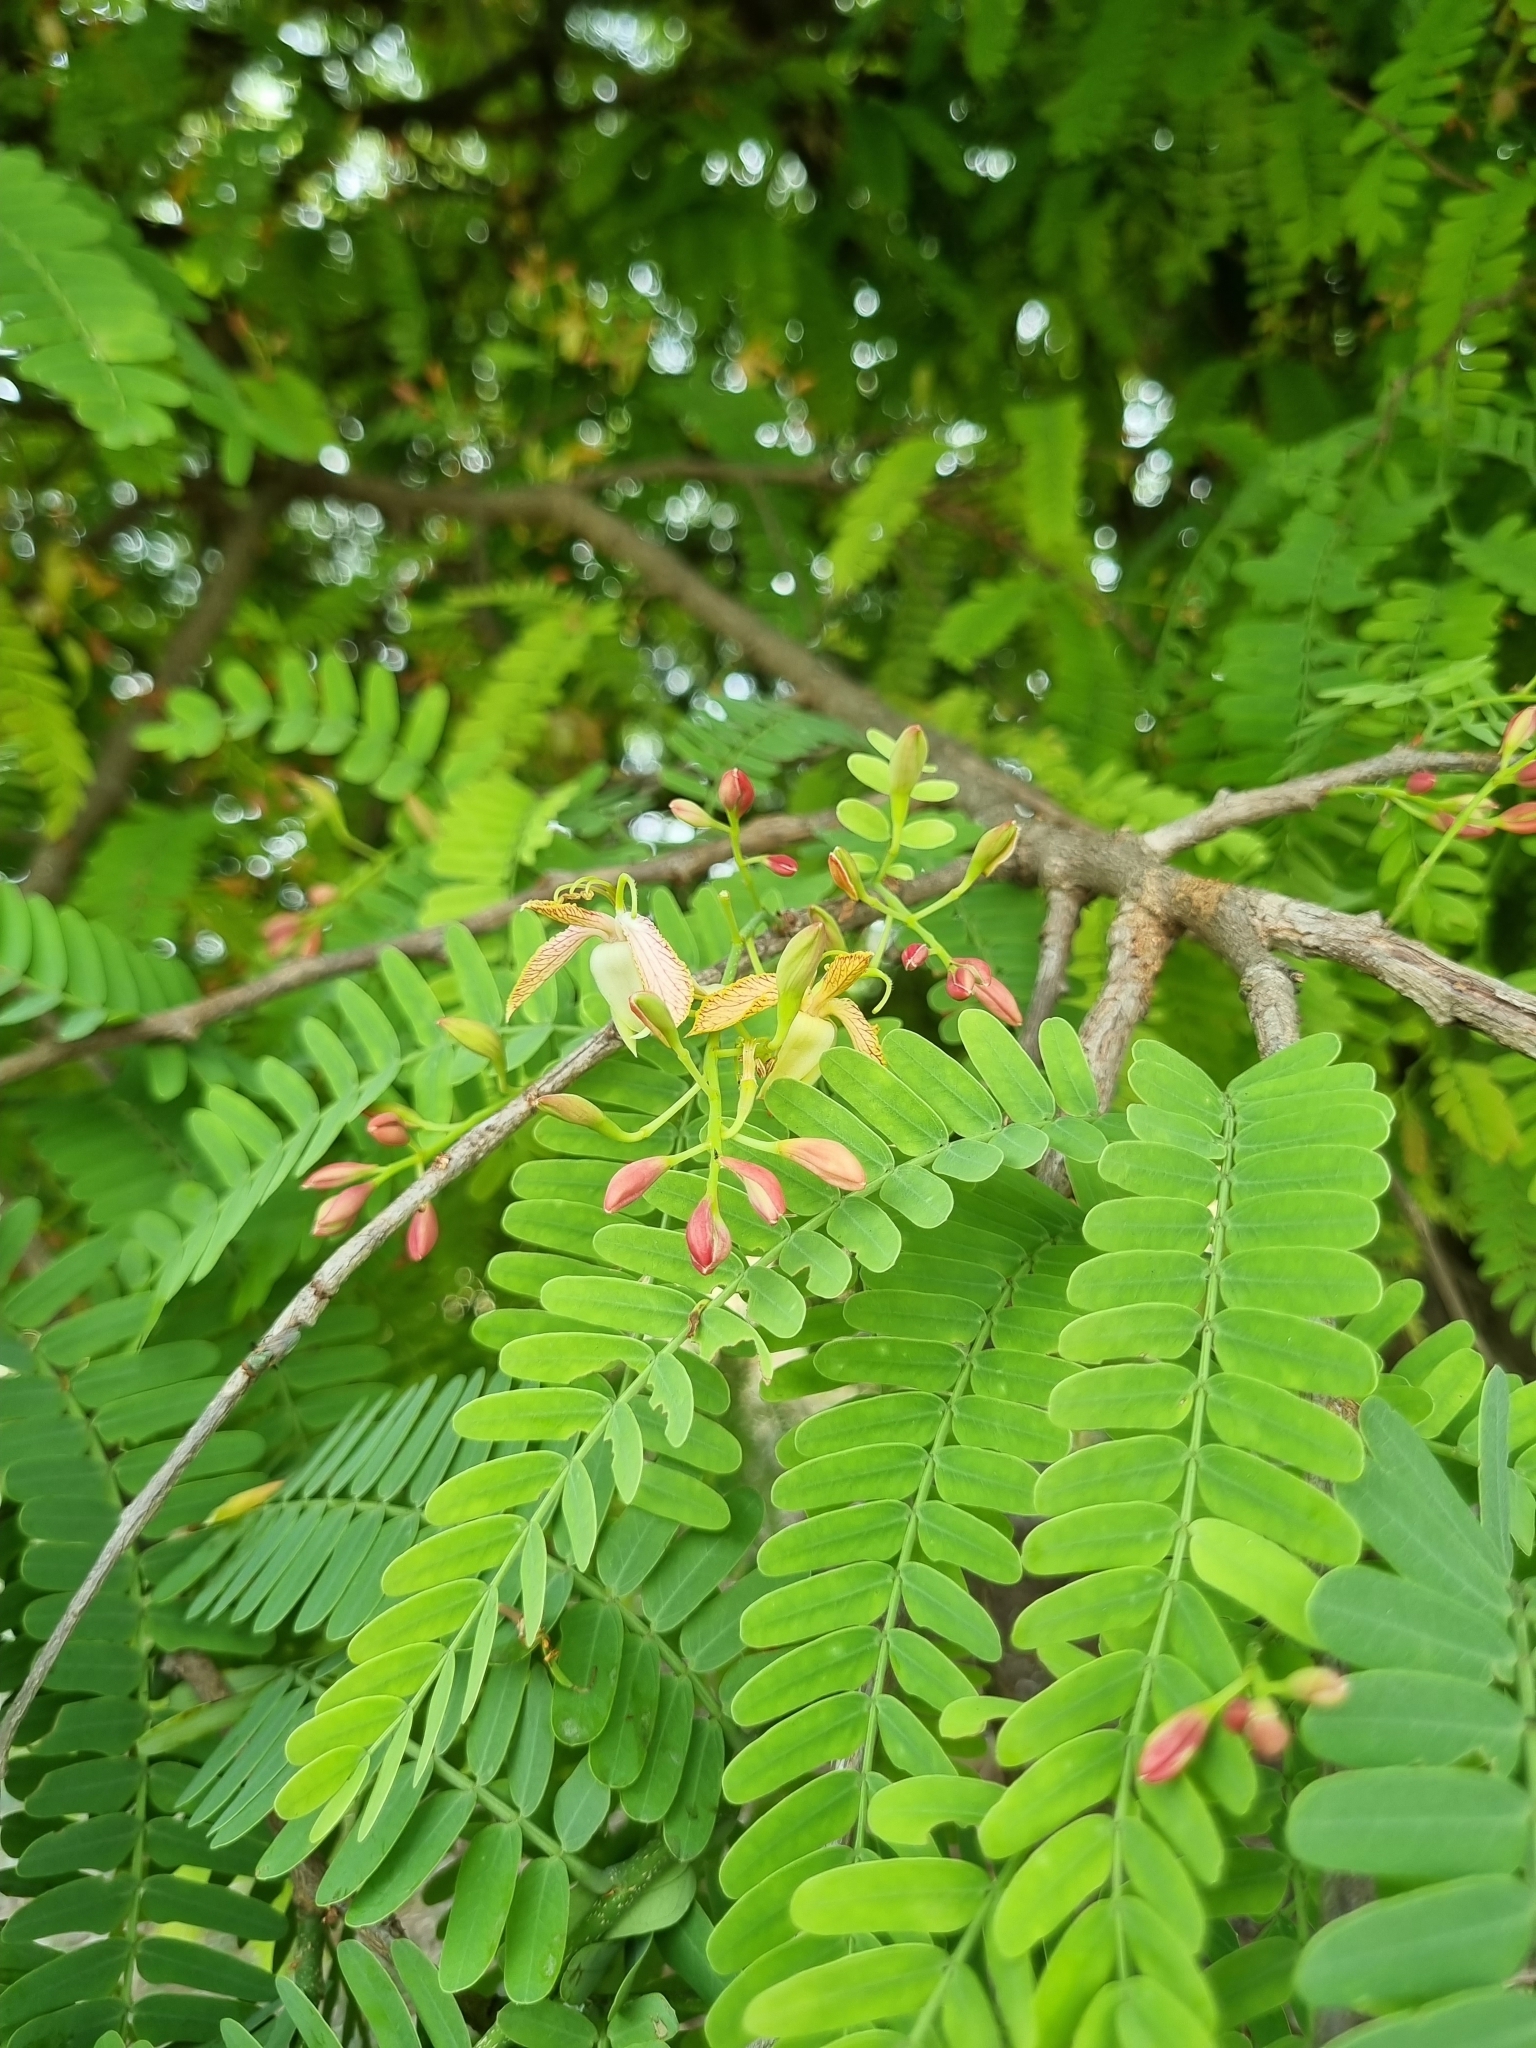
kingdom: Plantae
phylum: Tracheophyta
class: Magnoliopsida
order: Fabales
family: Fabaceae
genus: Tamarindus
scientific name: Tamarindus indica
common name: Tamarind
